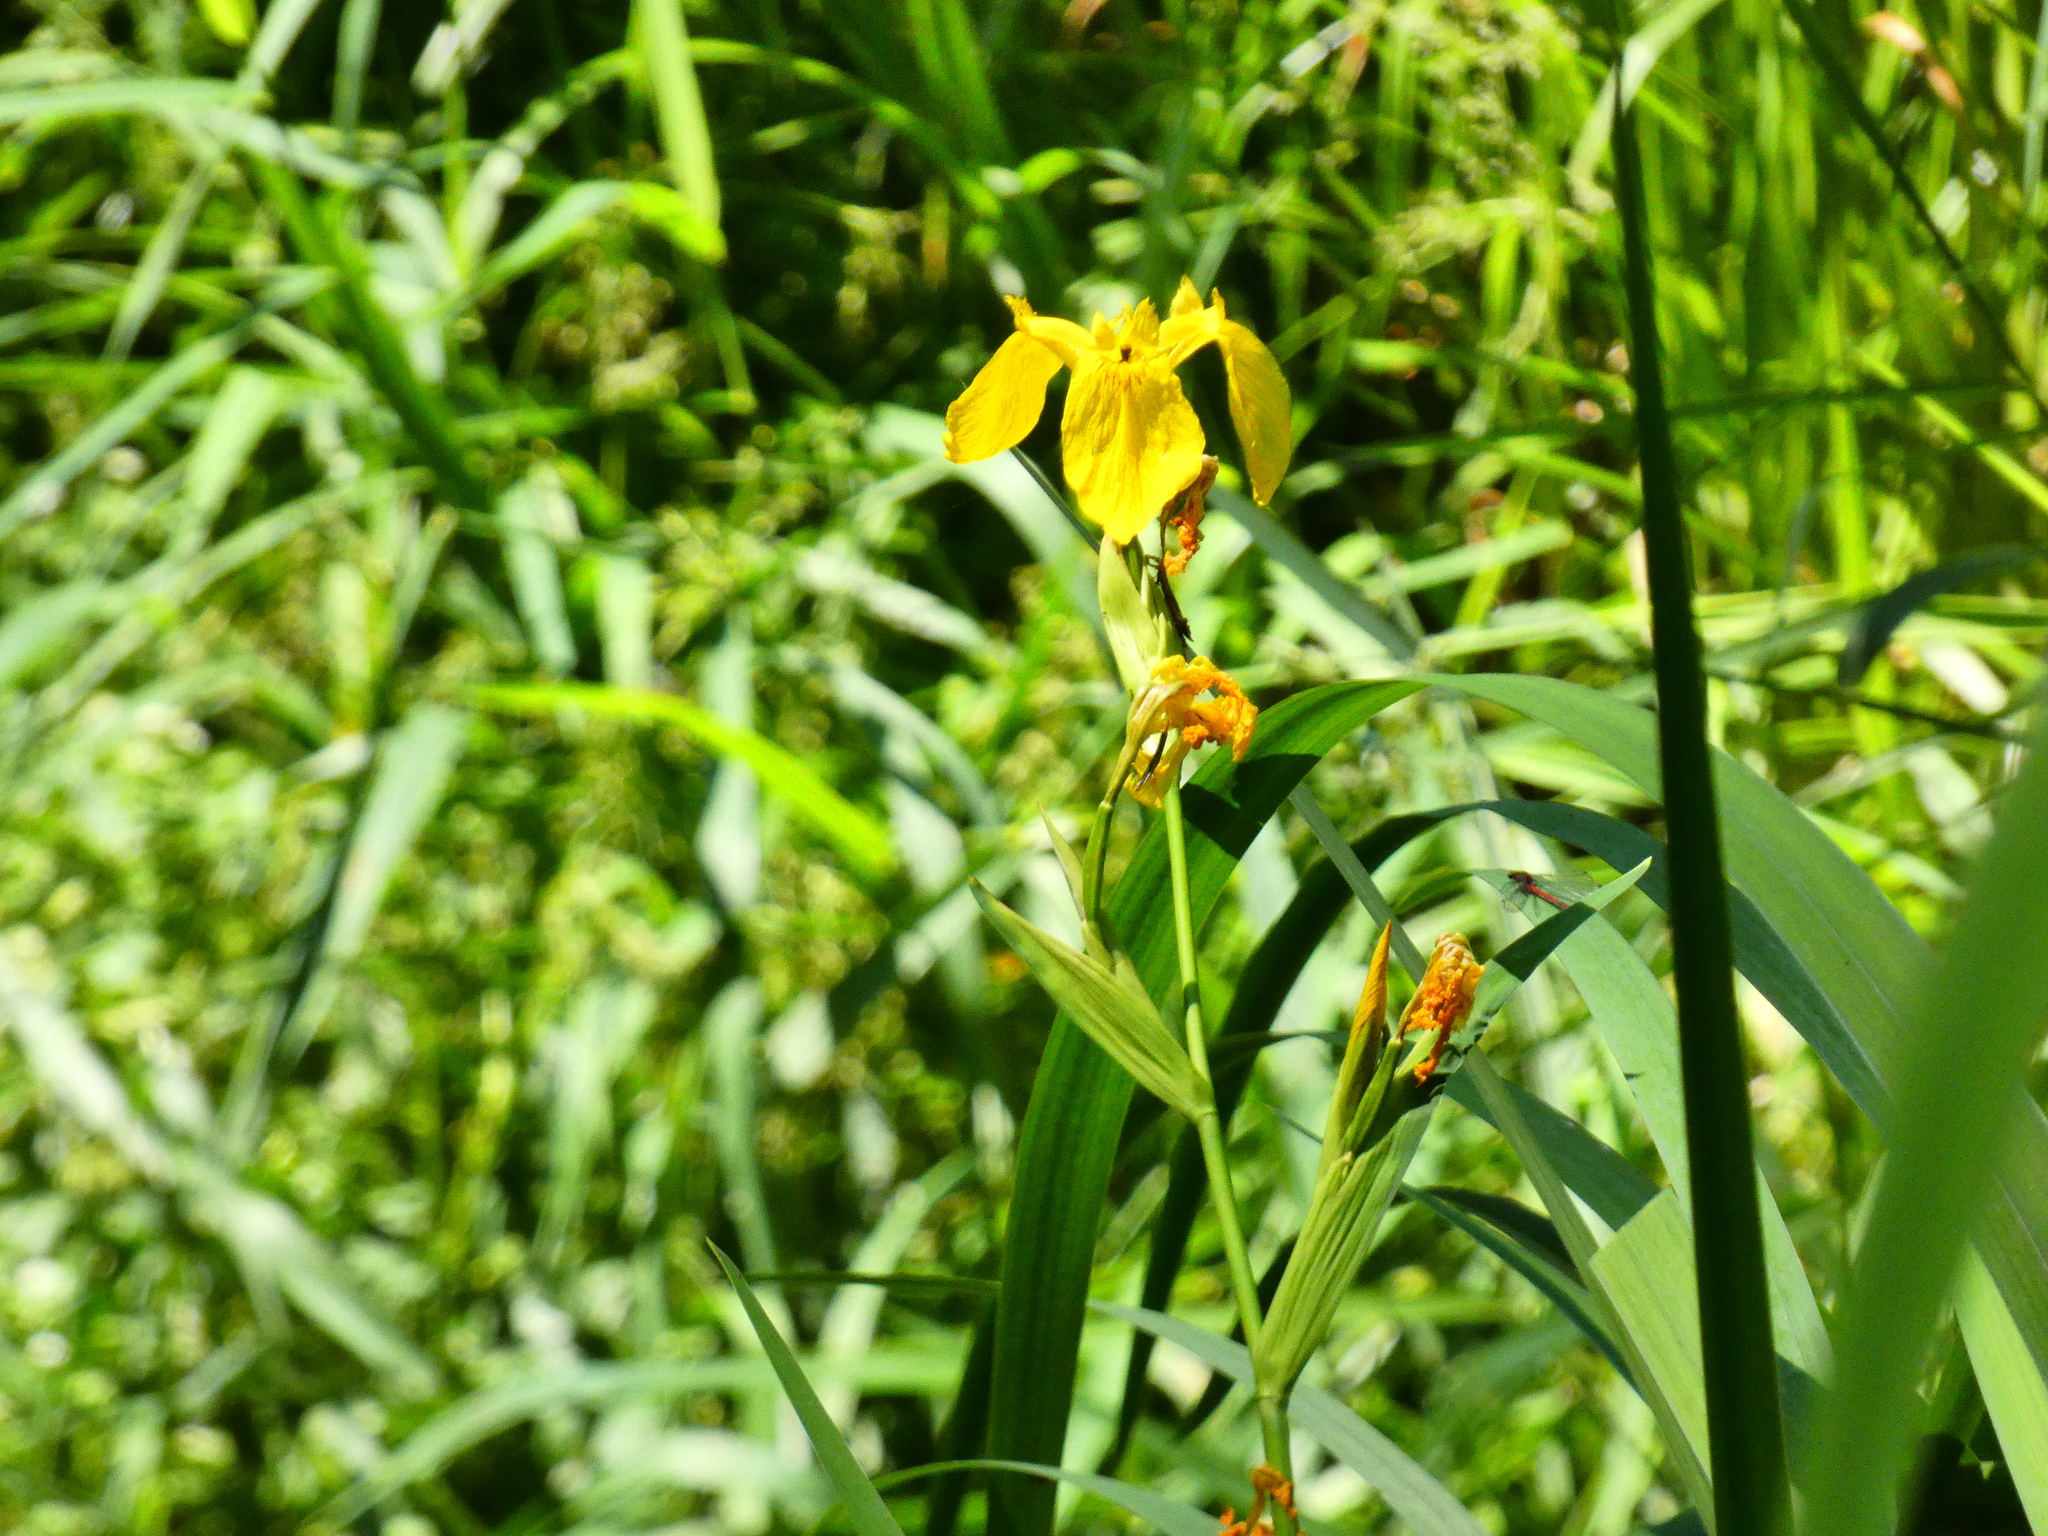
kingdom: Plantae
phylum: Tracheophyta
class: Liliopsida
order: Asparagales
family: Iridaceae
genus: Iris
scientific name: Iris pseudacorus
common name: Yellow flag
